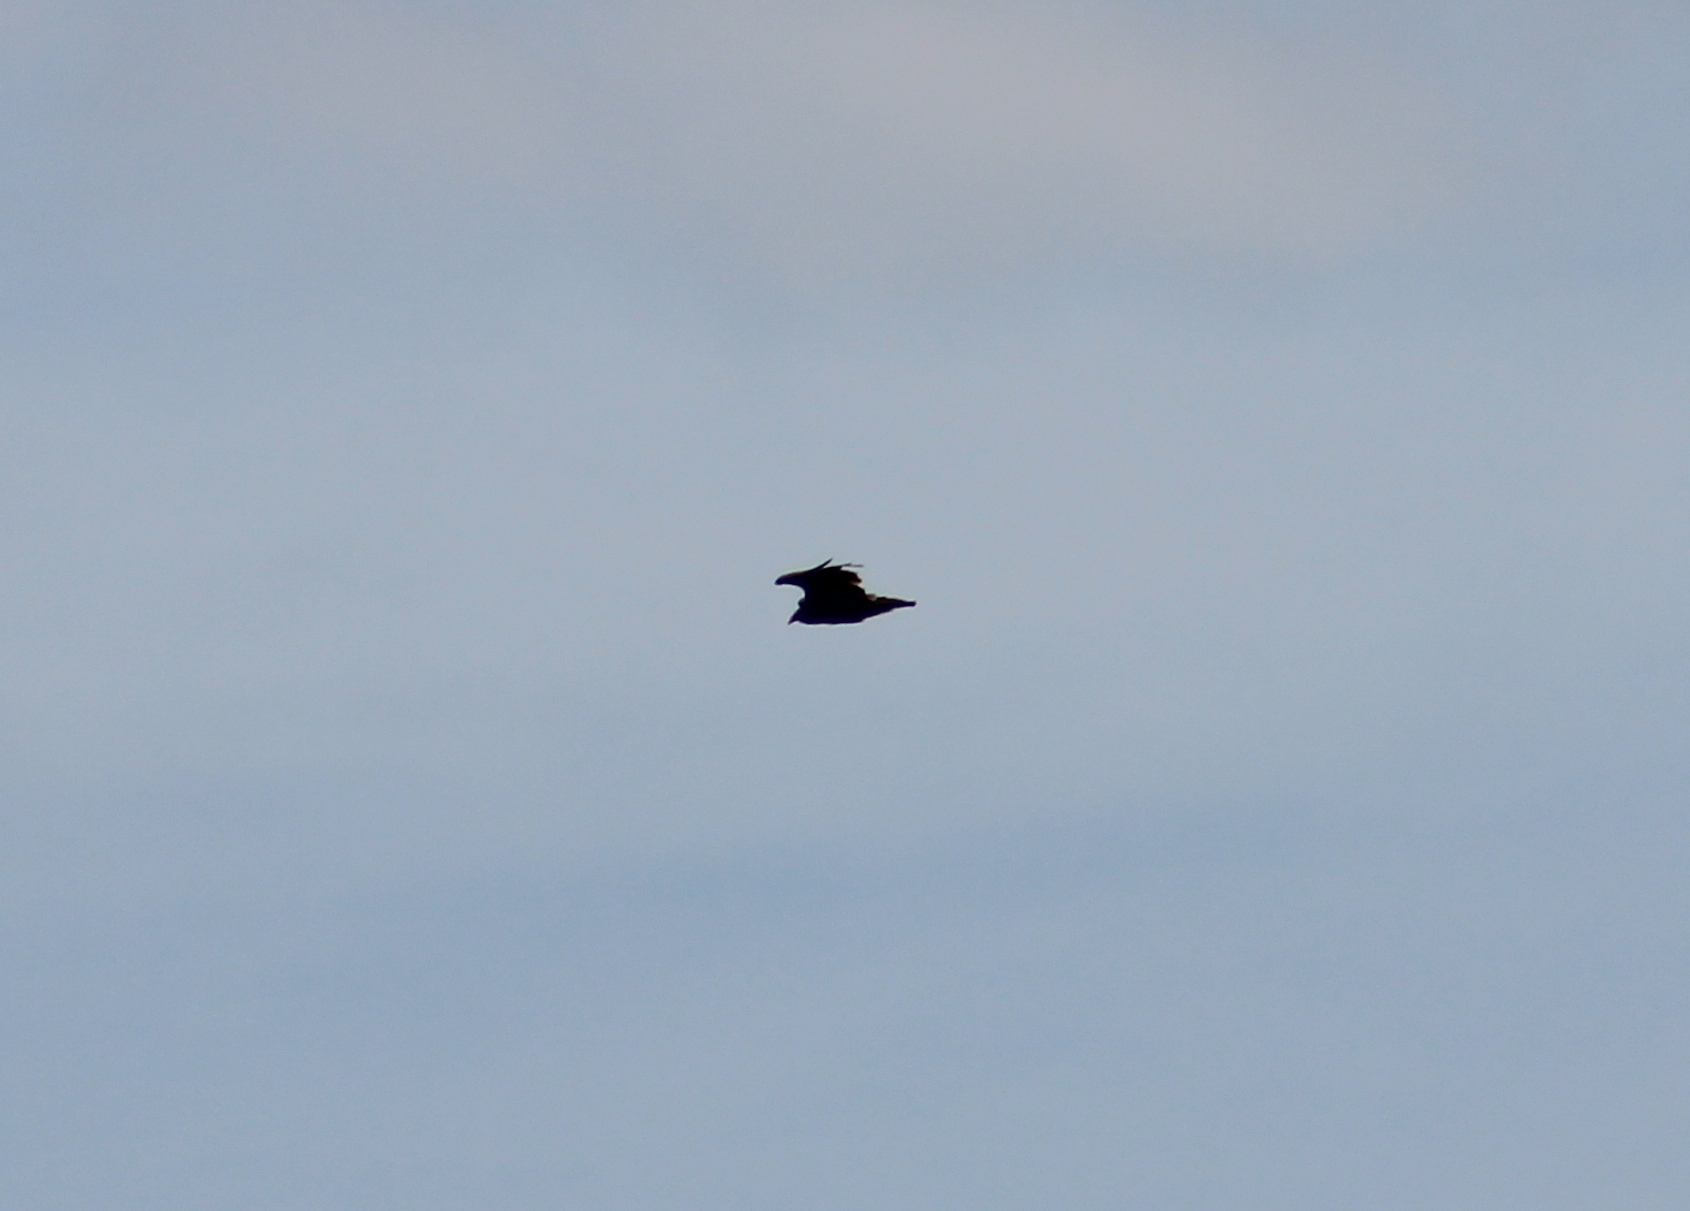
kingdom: Animalia
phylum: Chordata
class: Aves
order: Accipitriformes
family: Cathartidae
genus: Cathartes
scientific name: Cathartes aura
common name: Turkey vulture
